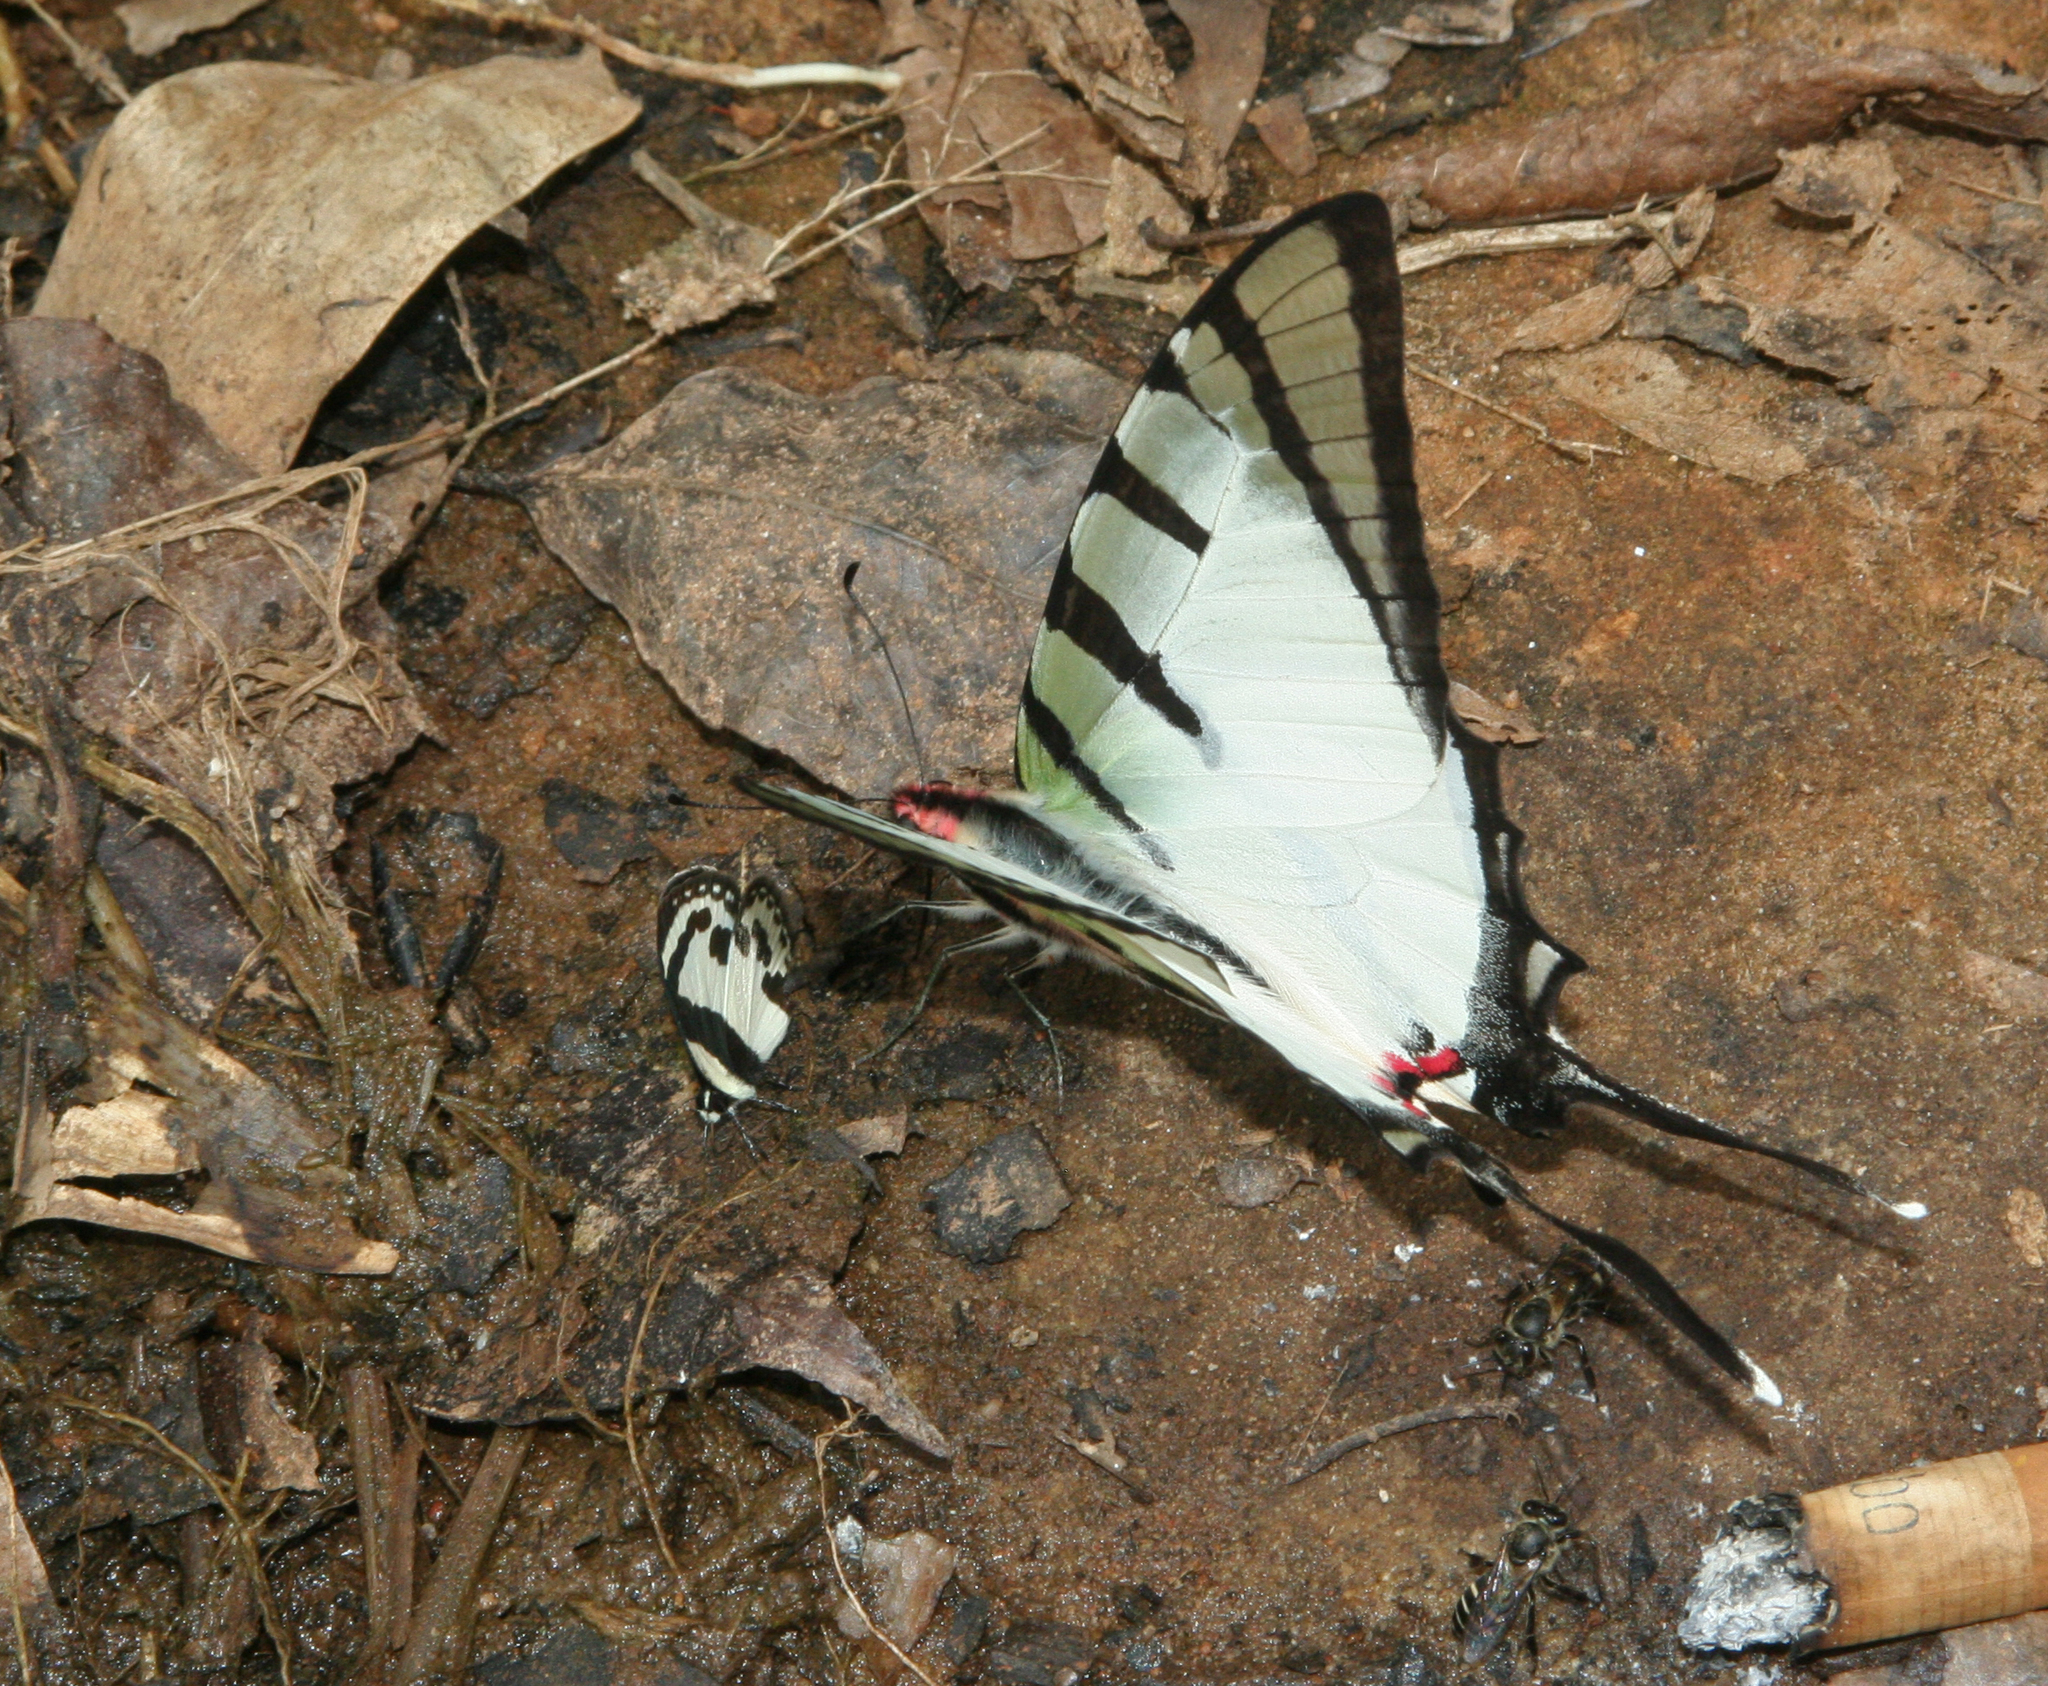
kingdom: Animalia
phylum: Arthropoda
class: Insecta
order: Lepidoptera
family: Lycaenidae
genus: Caleta
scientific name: Caleta roxus
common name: Straight pierrot
